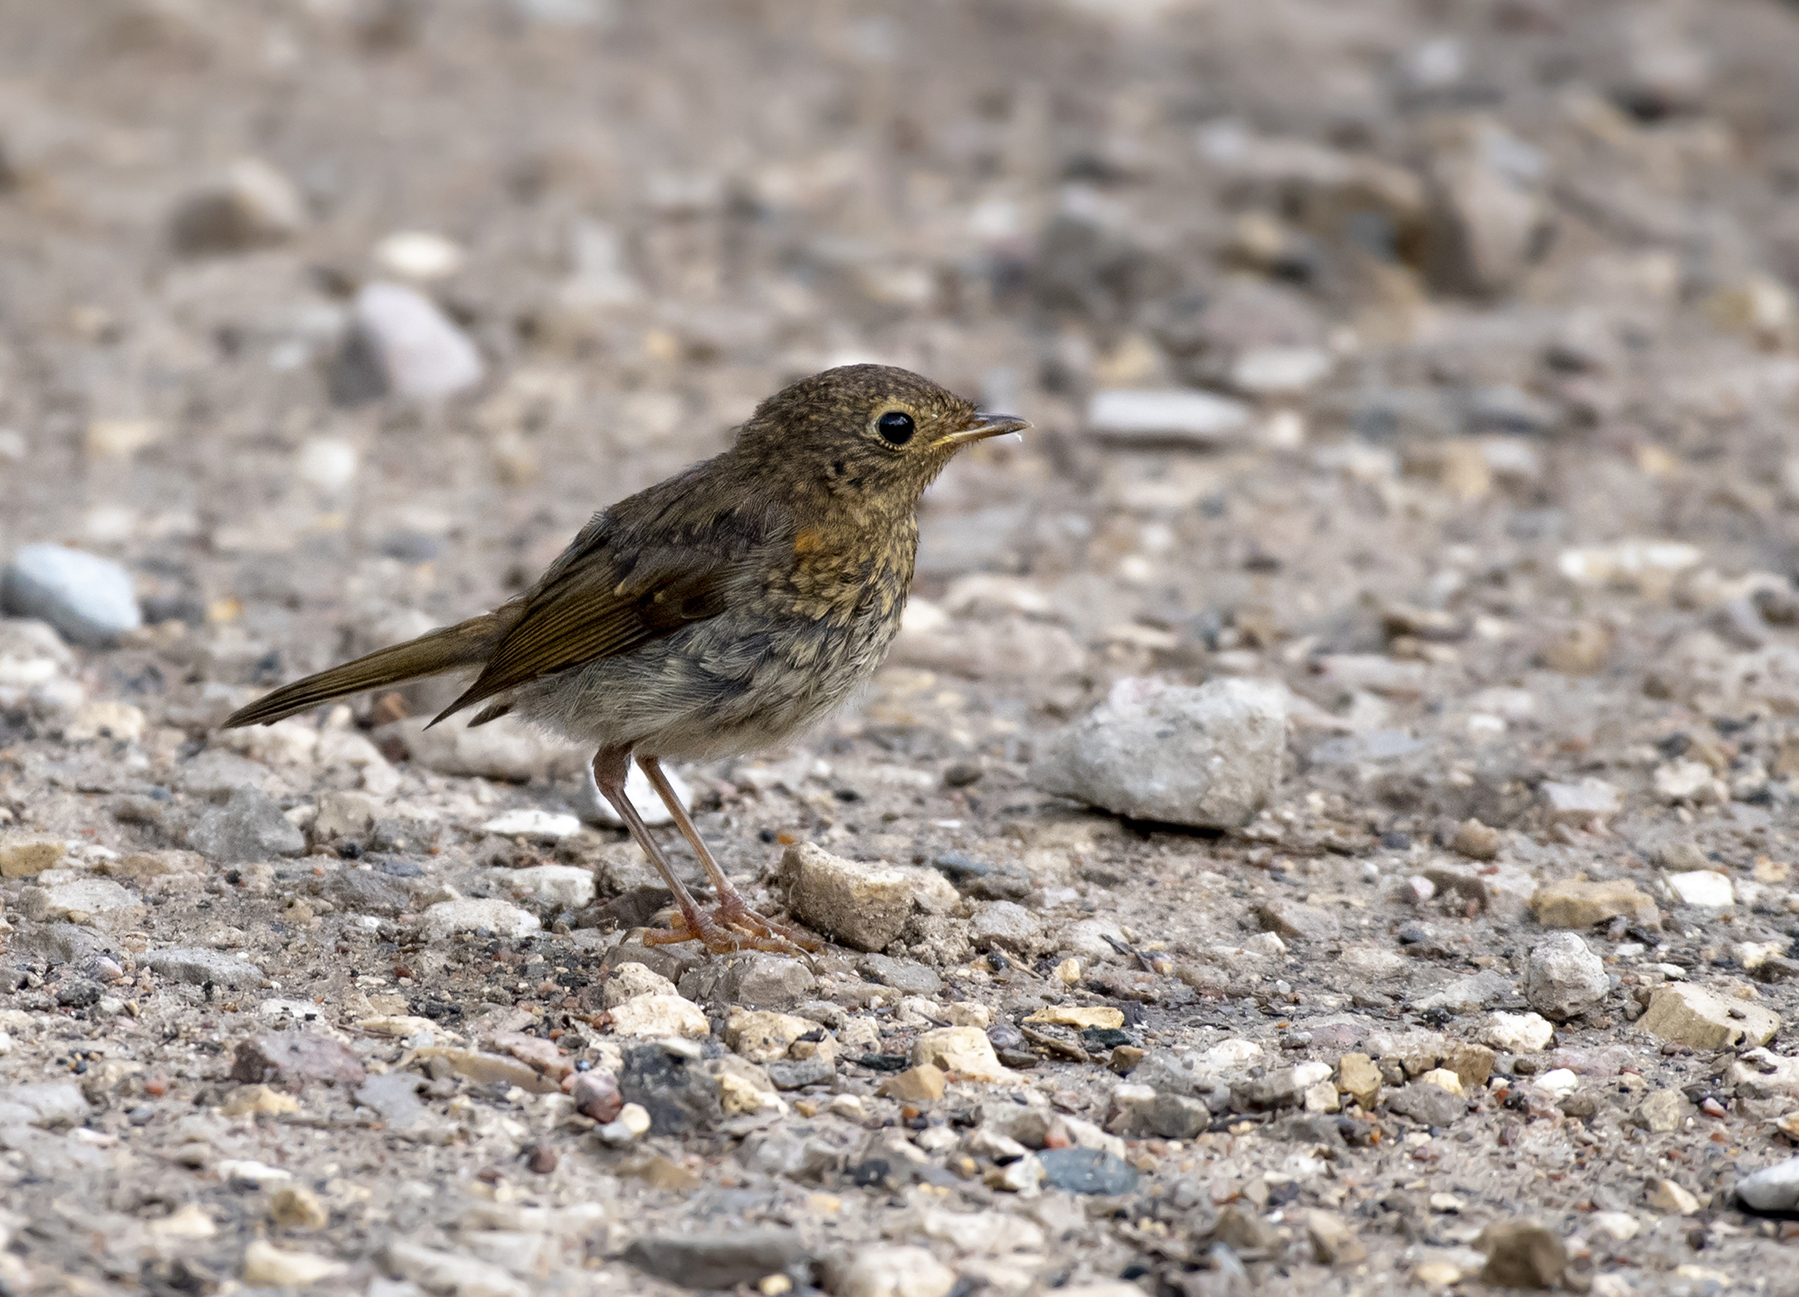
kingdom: Animalia
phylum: Chordata
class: Aves
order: Passeriformes
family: Muscicapidae
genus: Erithacus
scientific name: Erithacus rubecula
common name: European robin
